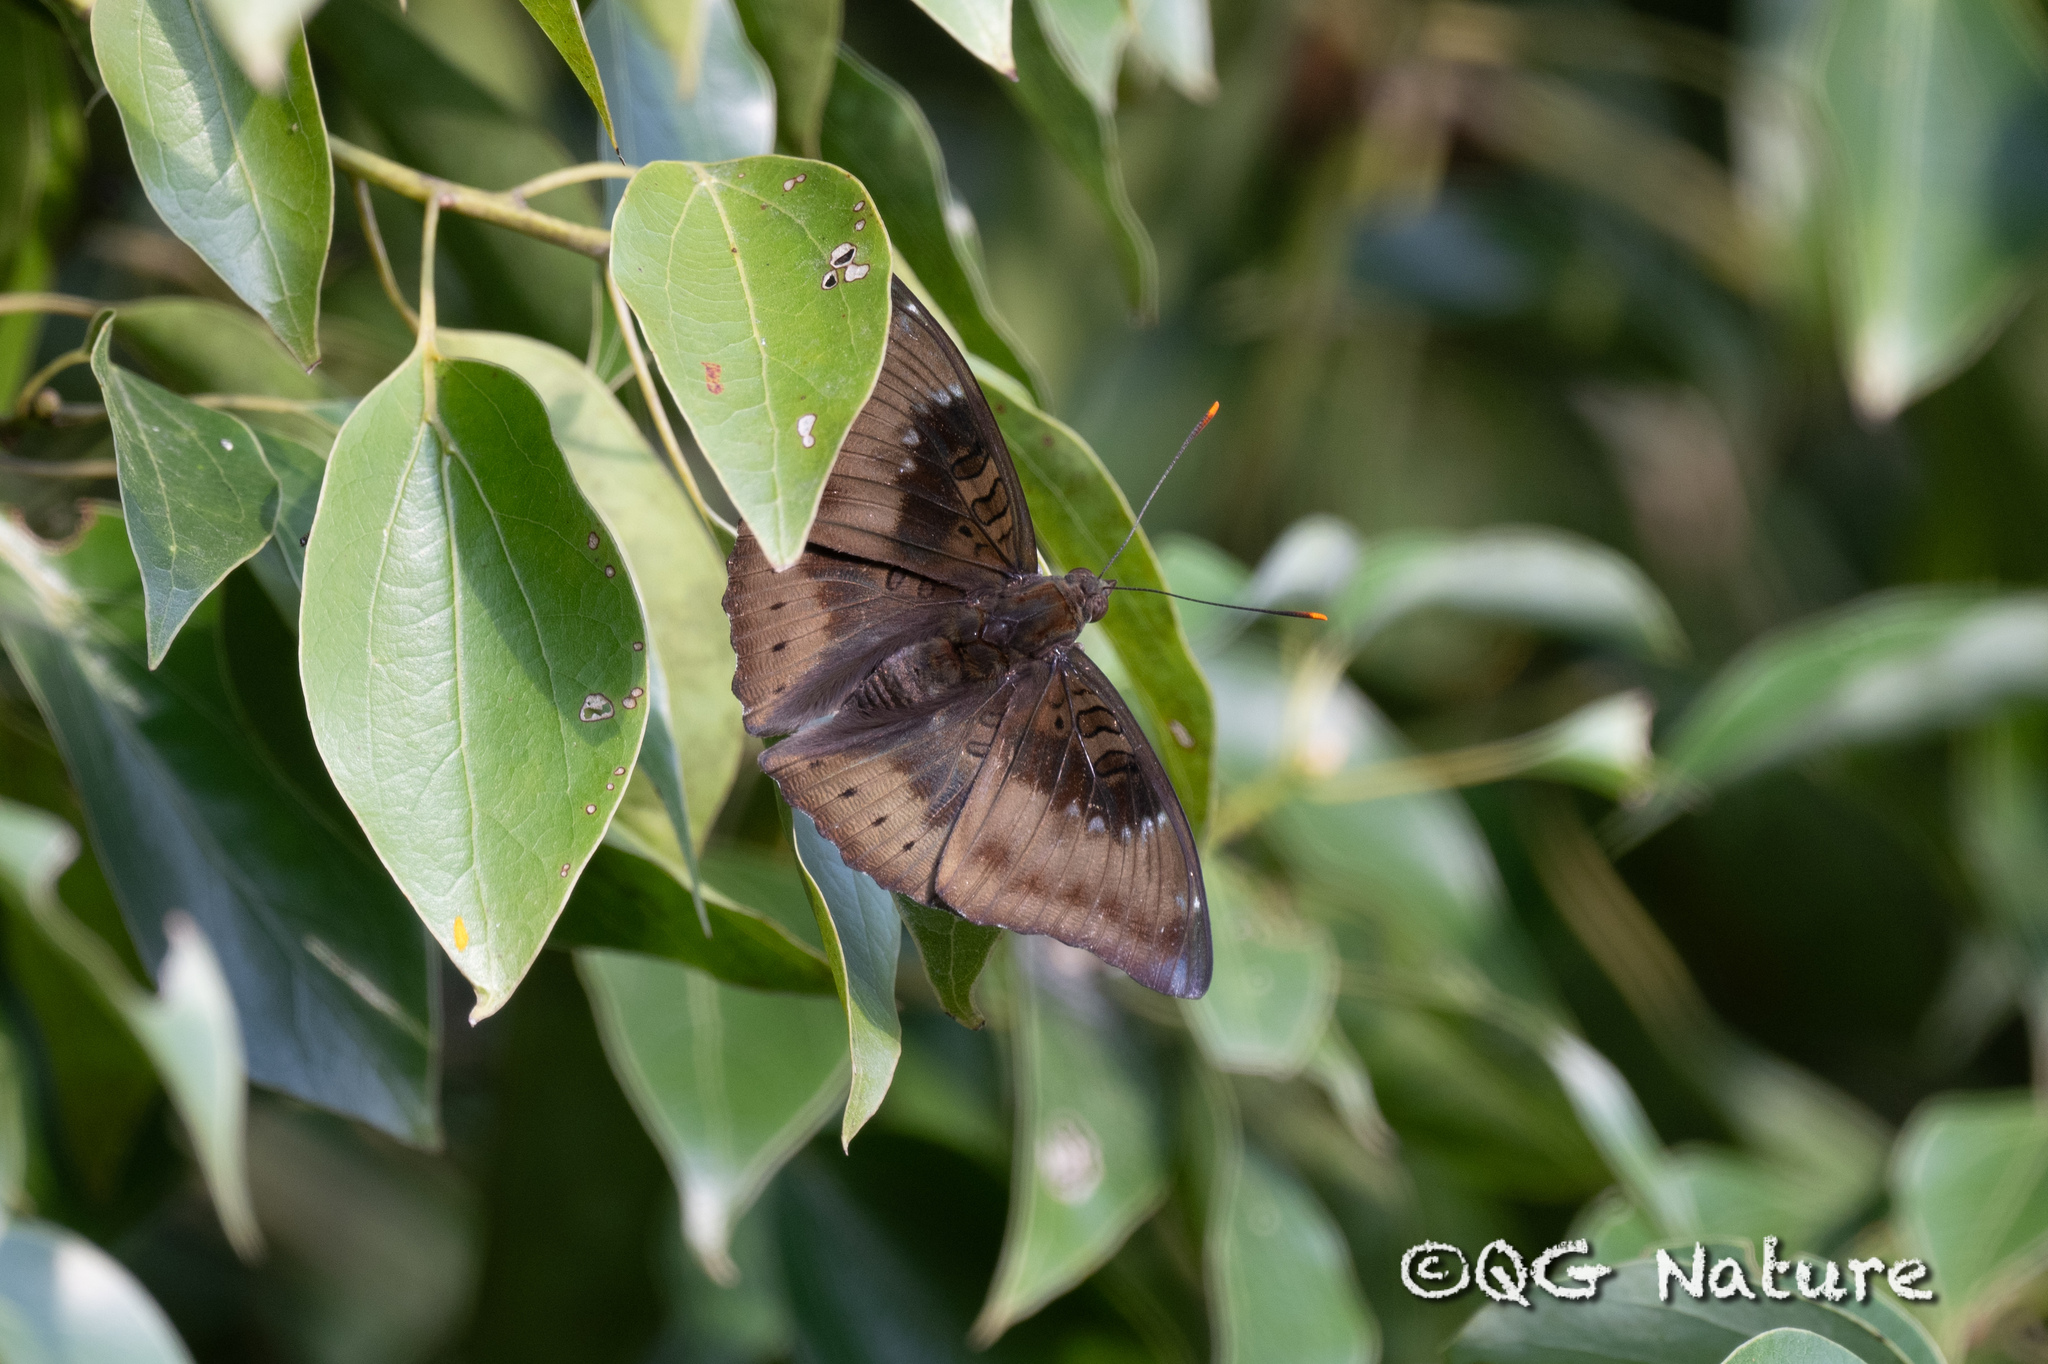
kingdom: Animalia
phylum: Arthropoda
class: Insecta
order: Lepidoptera
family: Nymphalidae
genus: Euthalia
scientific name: Euthalia aconthea
